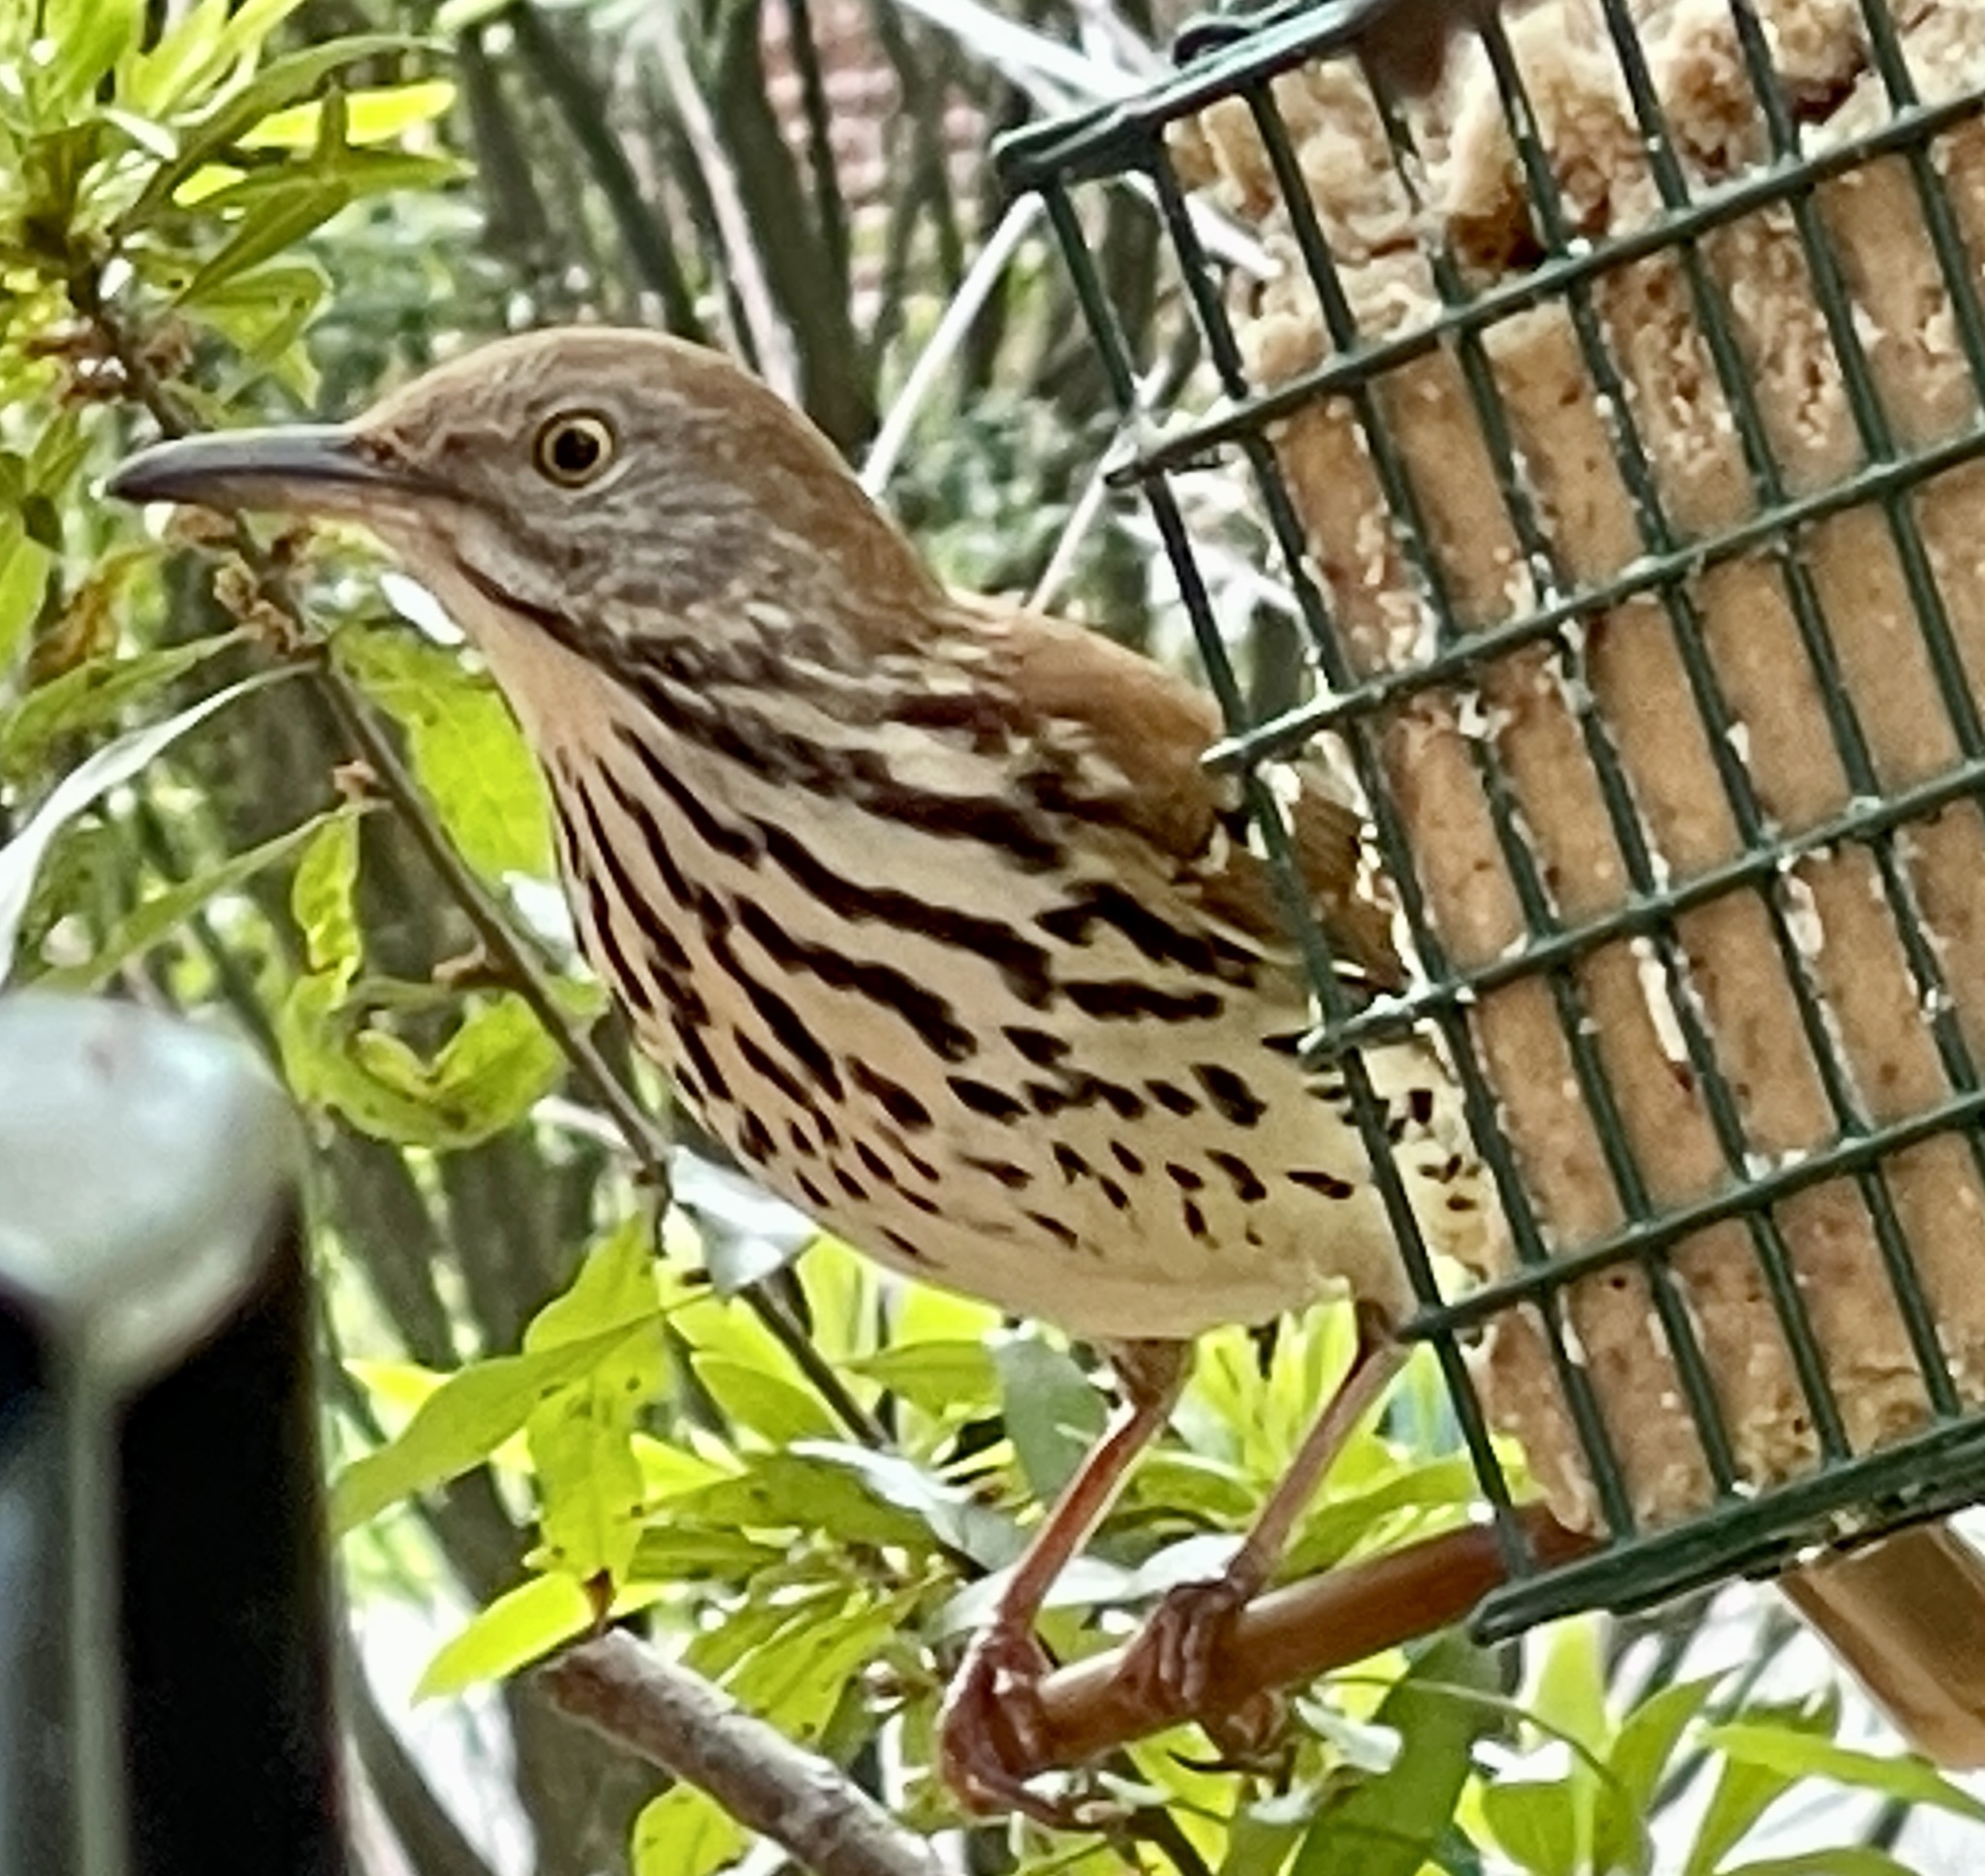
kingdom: Animalia
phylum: Chordata
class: Aves
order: Passeriformes
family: Mimidae
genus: Toxostoma
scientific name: Toxostoma rufum
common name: Brown thrasher
